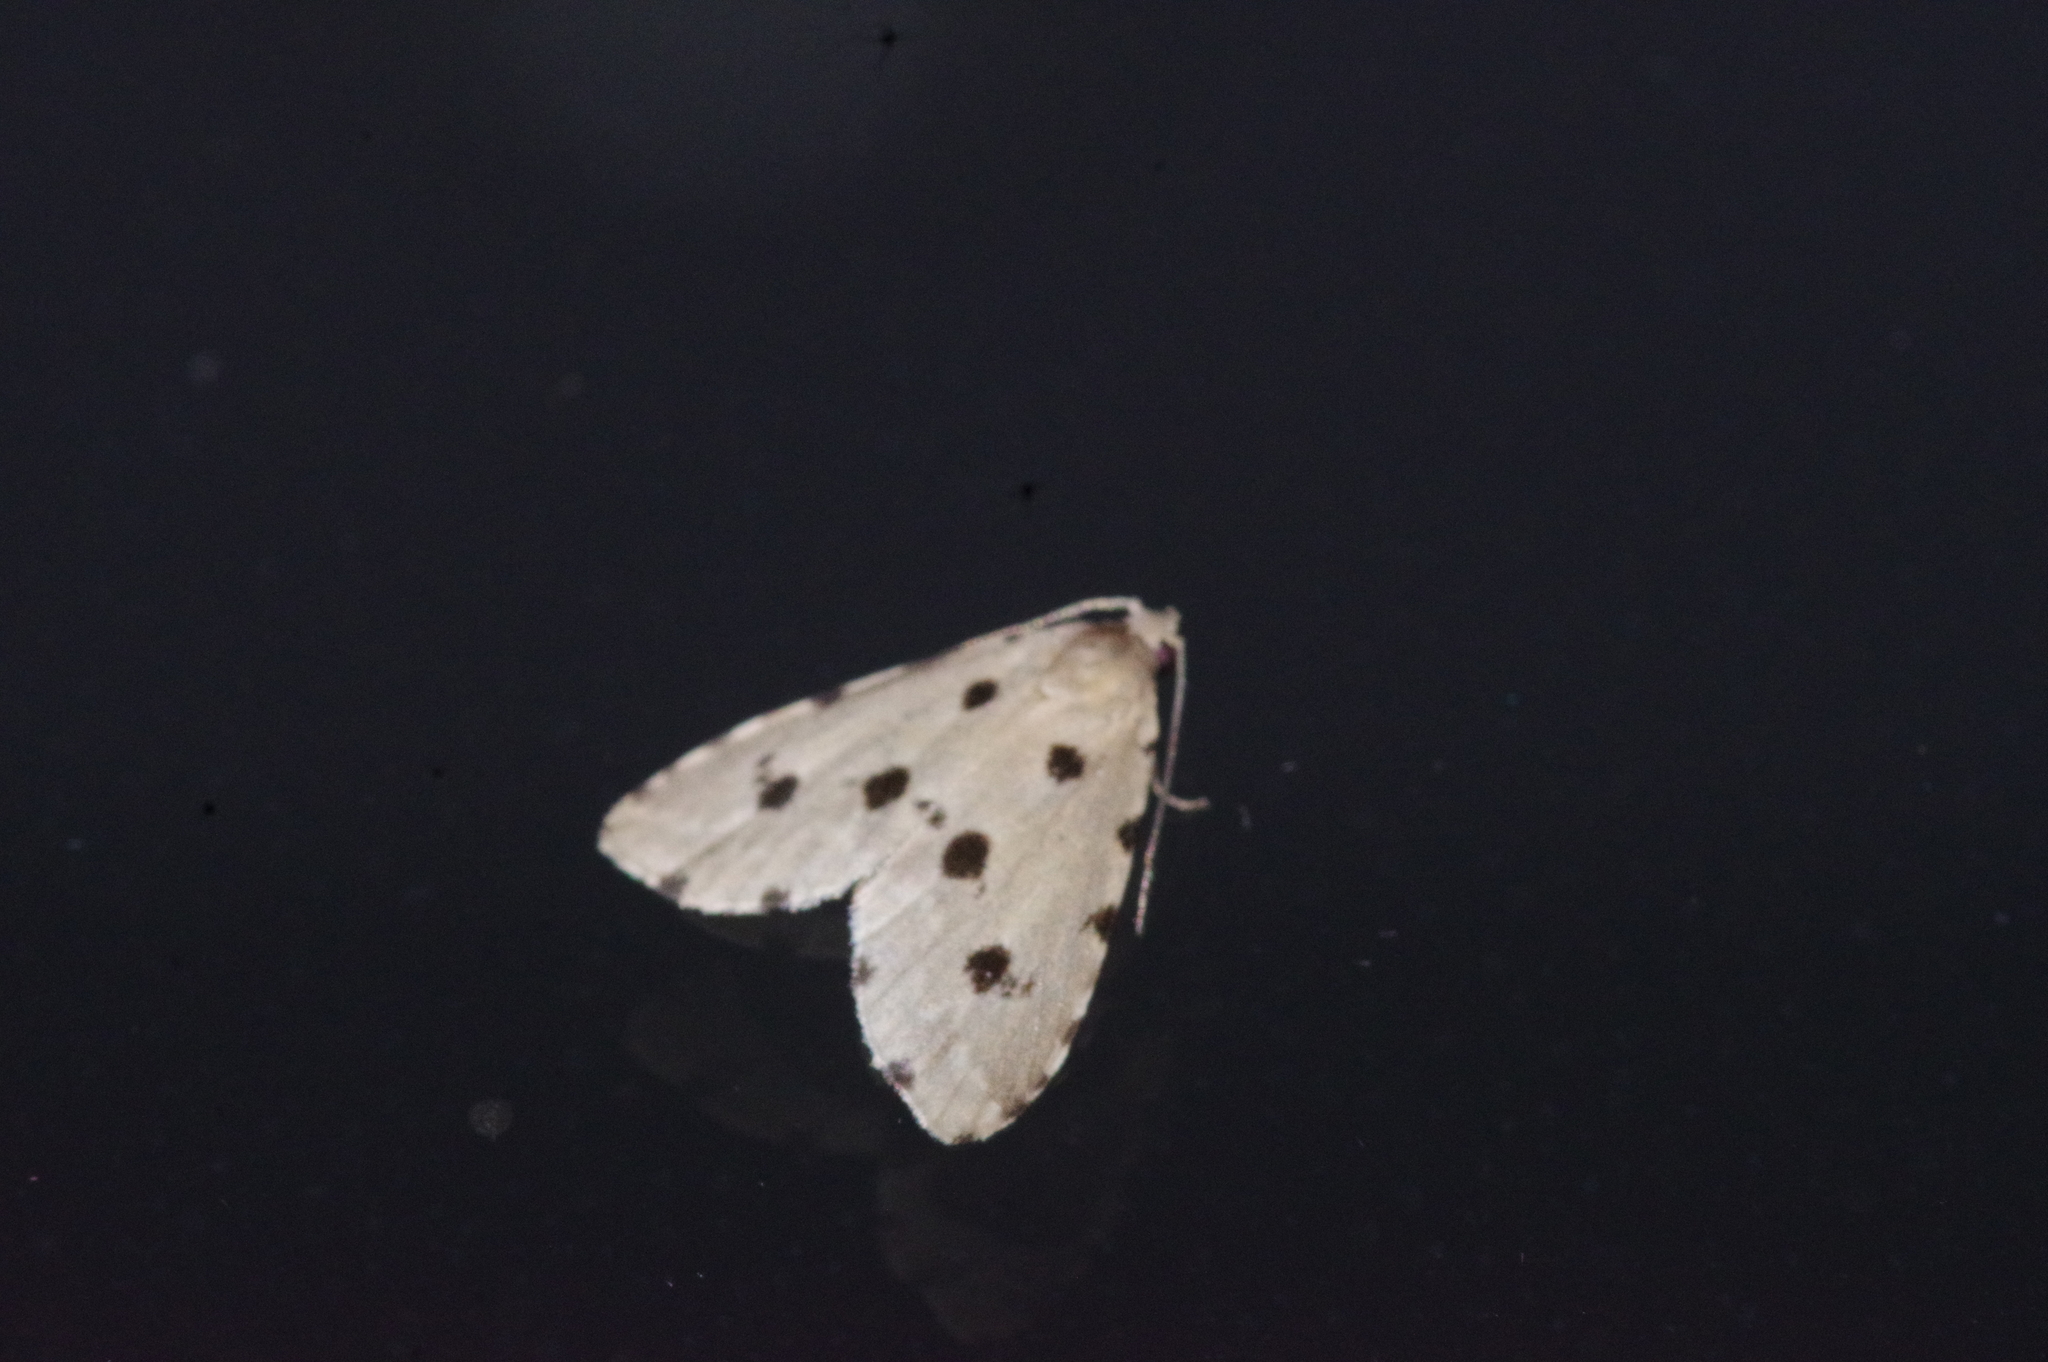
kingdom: Animalia
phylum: Arthropoda
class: Insecta
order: Lepidoptera
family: Noctuidae
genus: Metaemene
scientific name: Metaemene atrigutta
